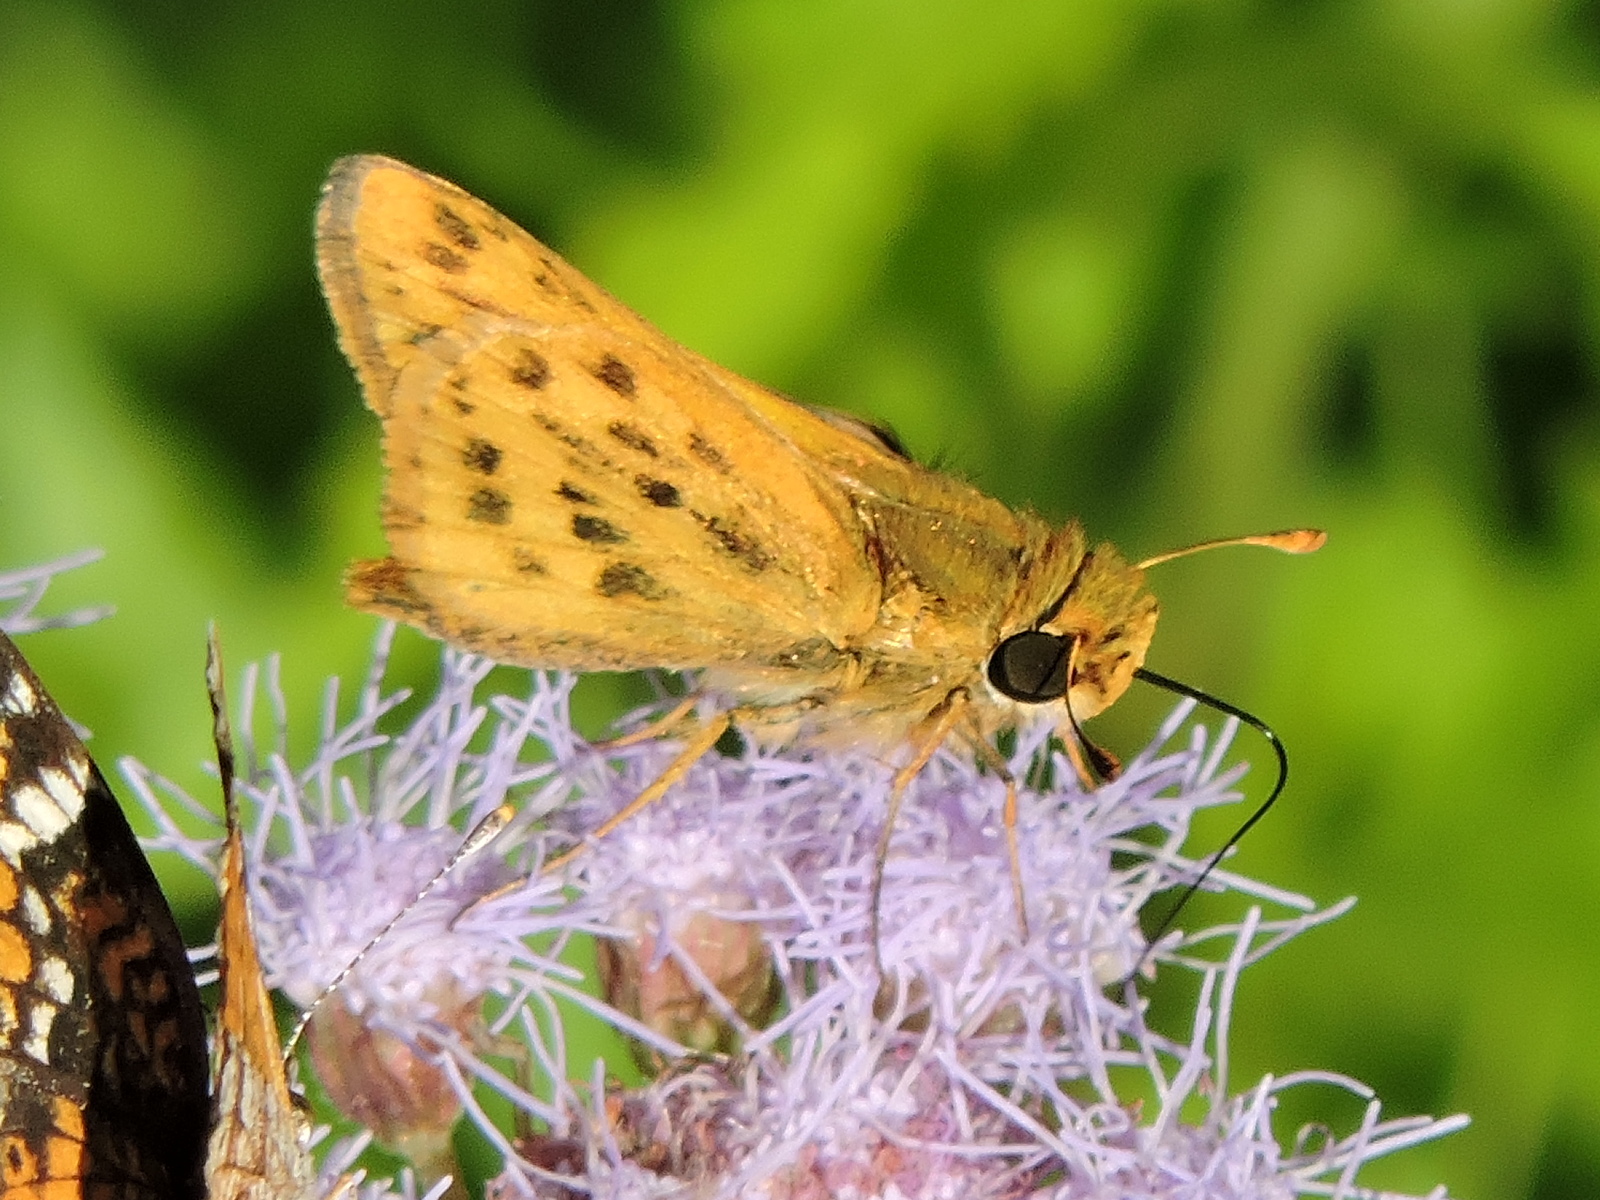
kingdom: Animalia
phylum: Arthropoda
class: Insecta
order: Lepidoptera
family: Hesperiidae
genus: Hylephila
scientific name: Hylephila phyleus
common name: Fiery skipper
